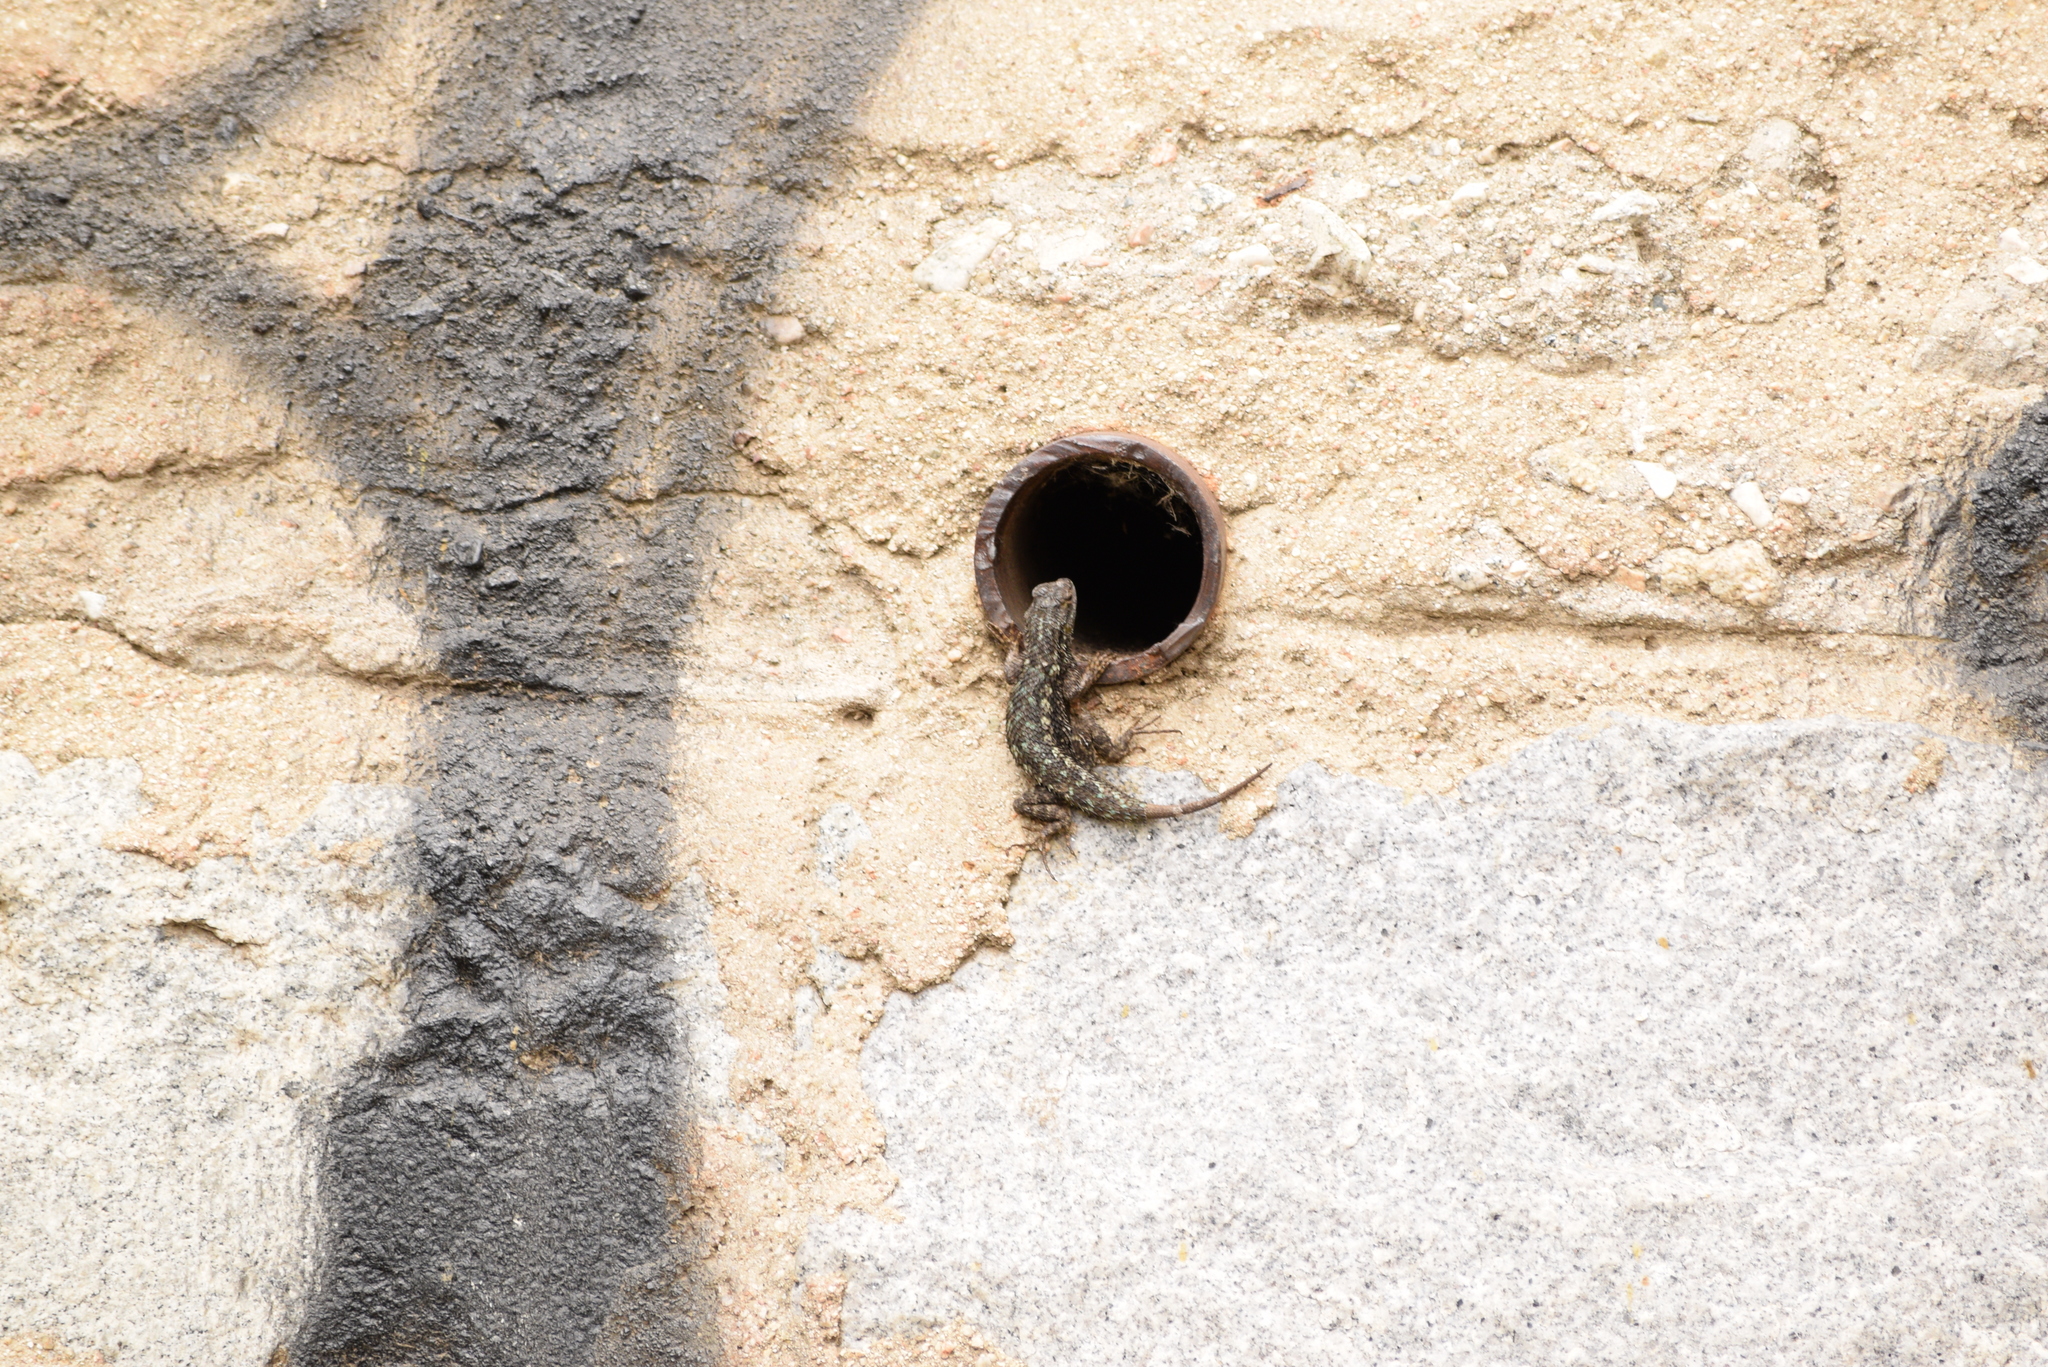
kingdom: Animalia
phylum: Chordata
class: Squamata
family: Phrynosomatidae
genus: Sceloporus
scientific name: Sceloporus occidentalis
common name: Western fence lizard
